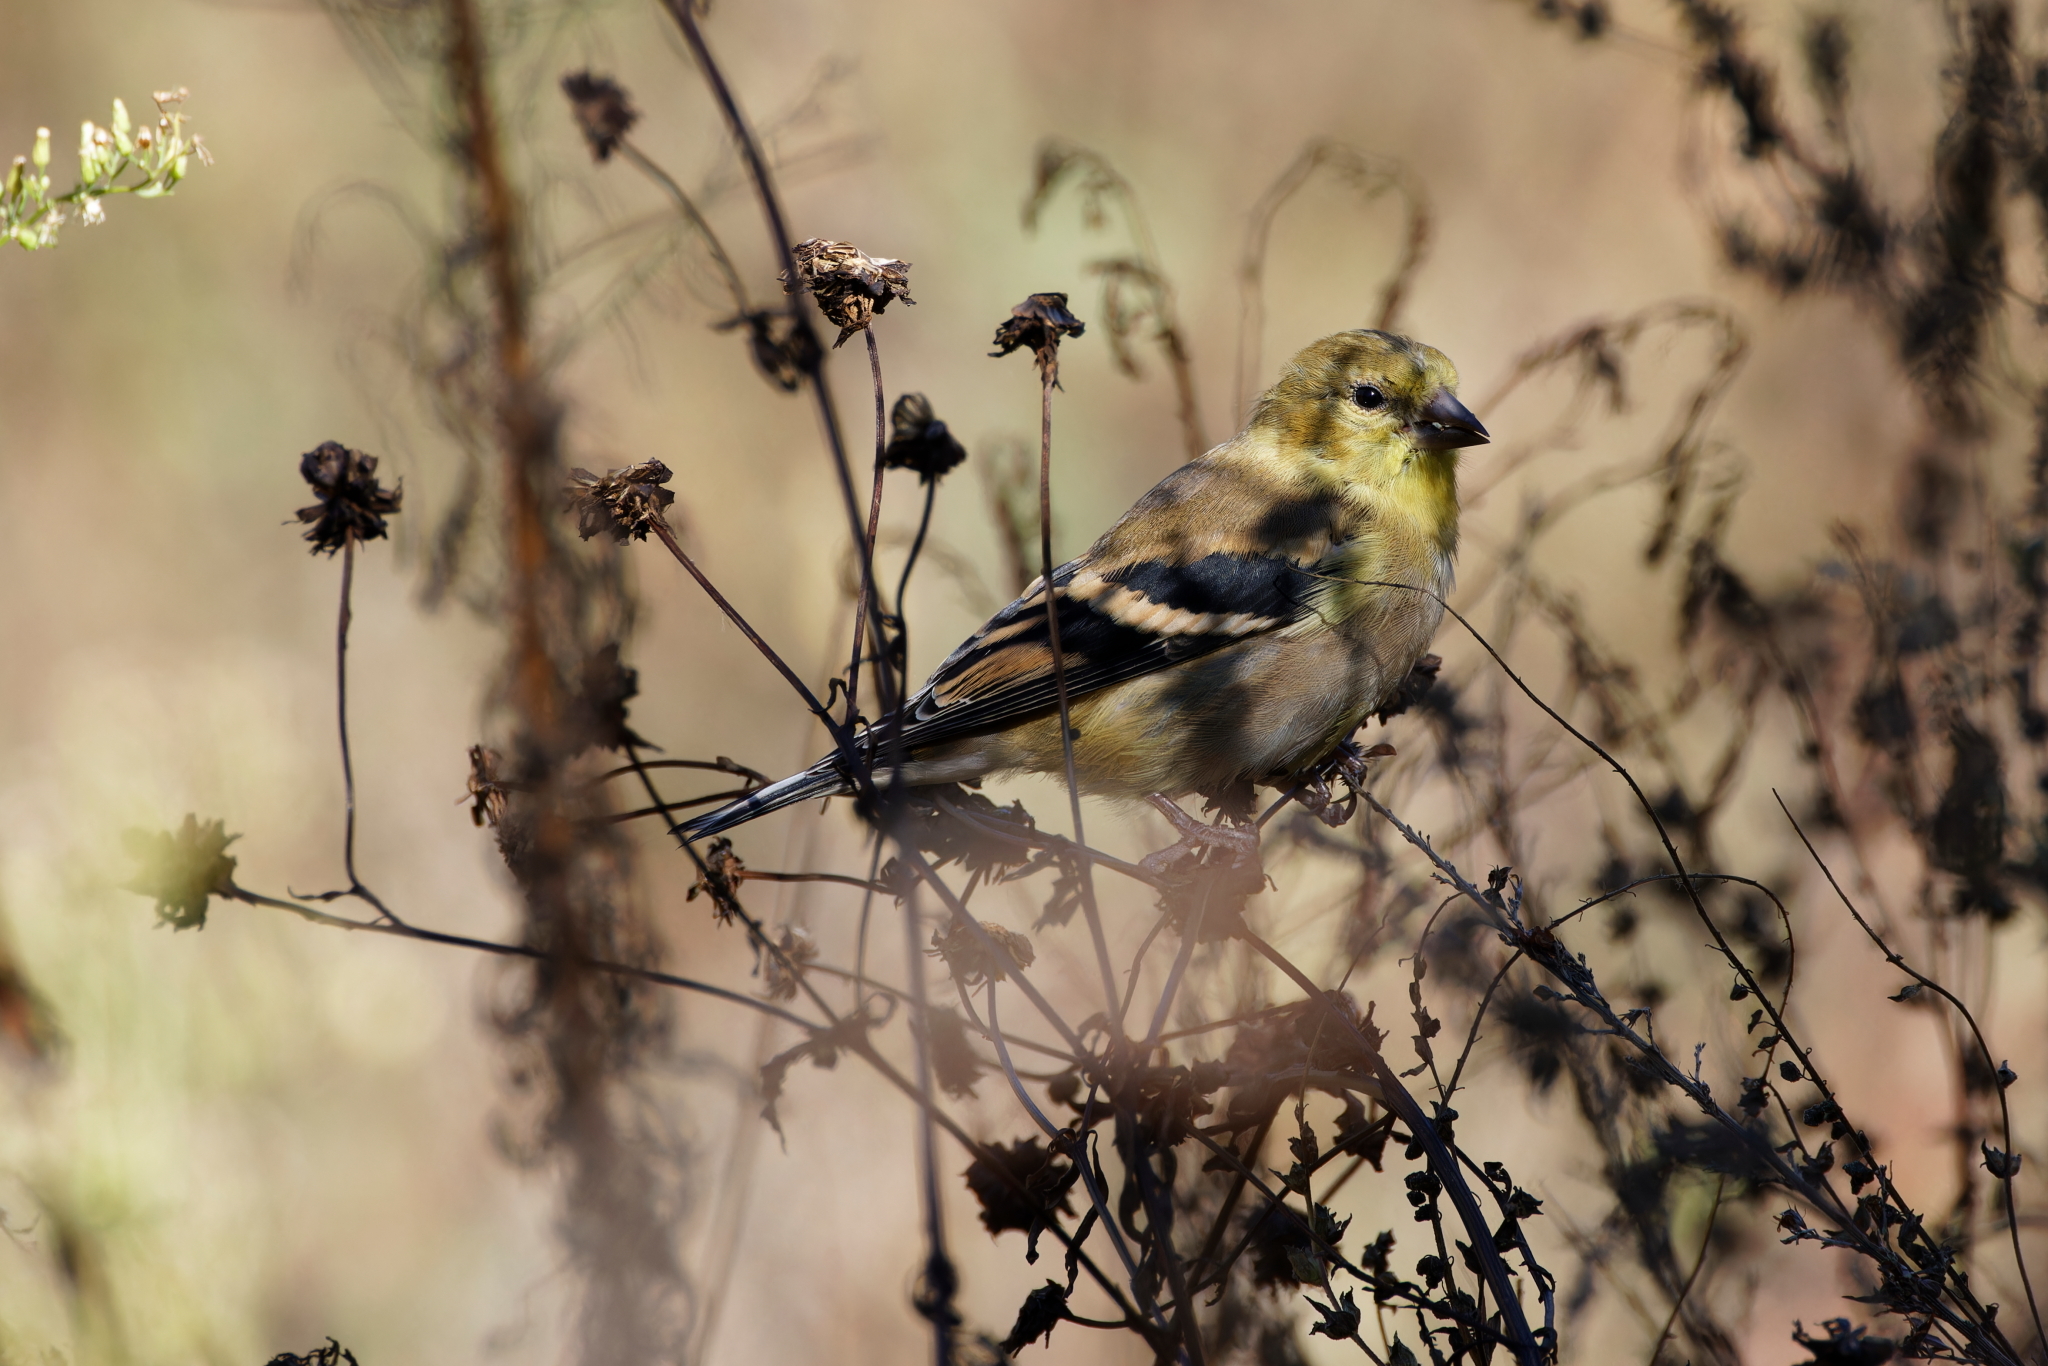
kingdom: Animalia
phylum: Chordata
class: Aves
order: Passeriformes
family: Fringillidae
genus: Spinus
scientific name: Spinus tristis
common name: American goldfinch
